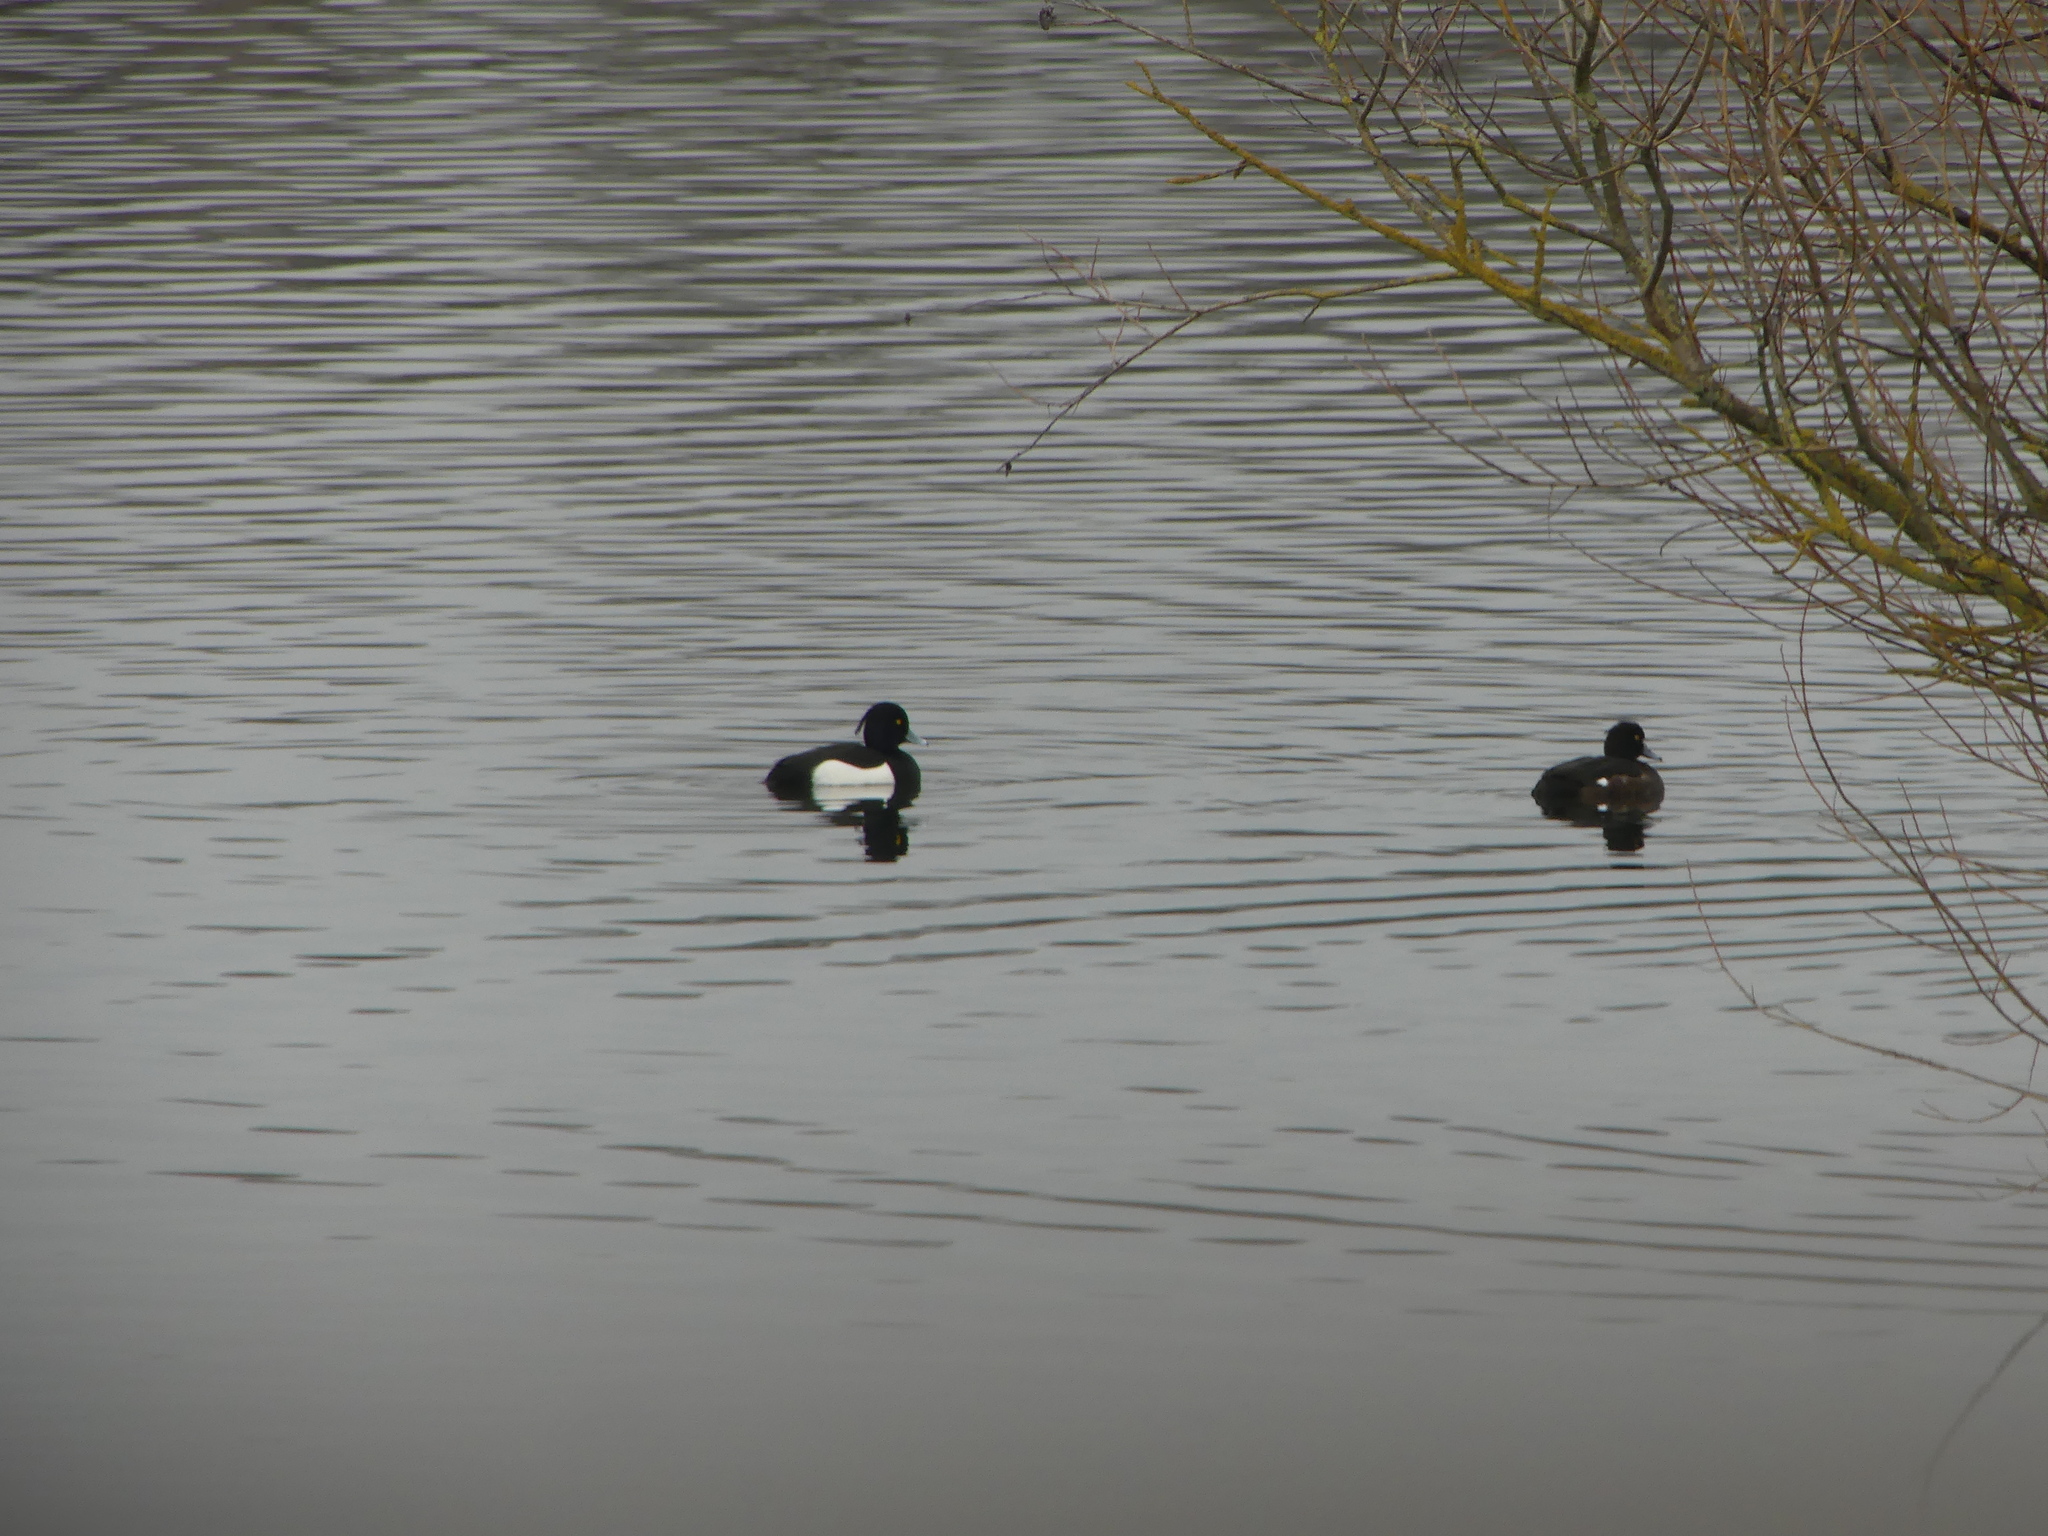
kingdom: Animalia
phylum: Chordata
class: Aves
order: Anseriformes
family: Anatidae
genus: Aythya
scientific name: Aythya fuligula
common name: Tufted duck
